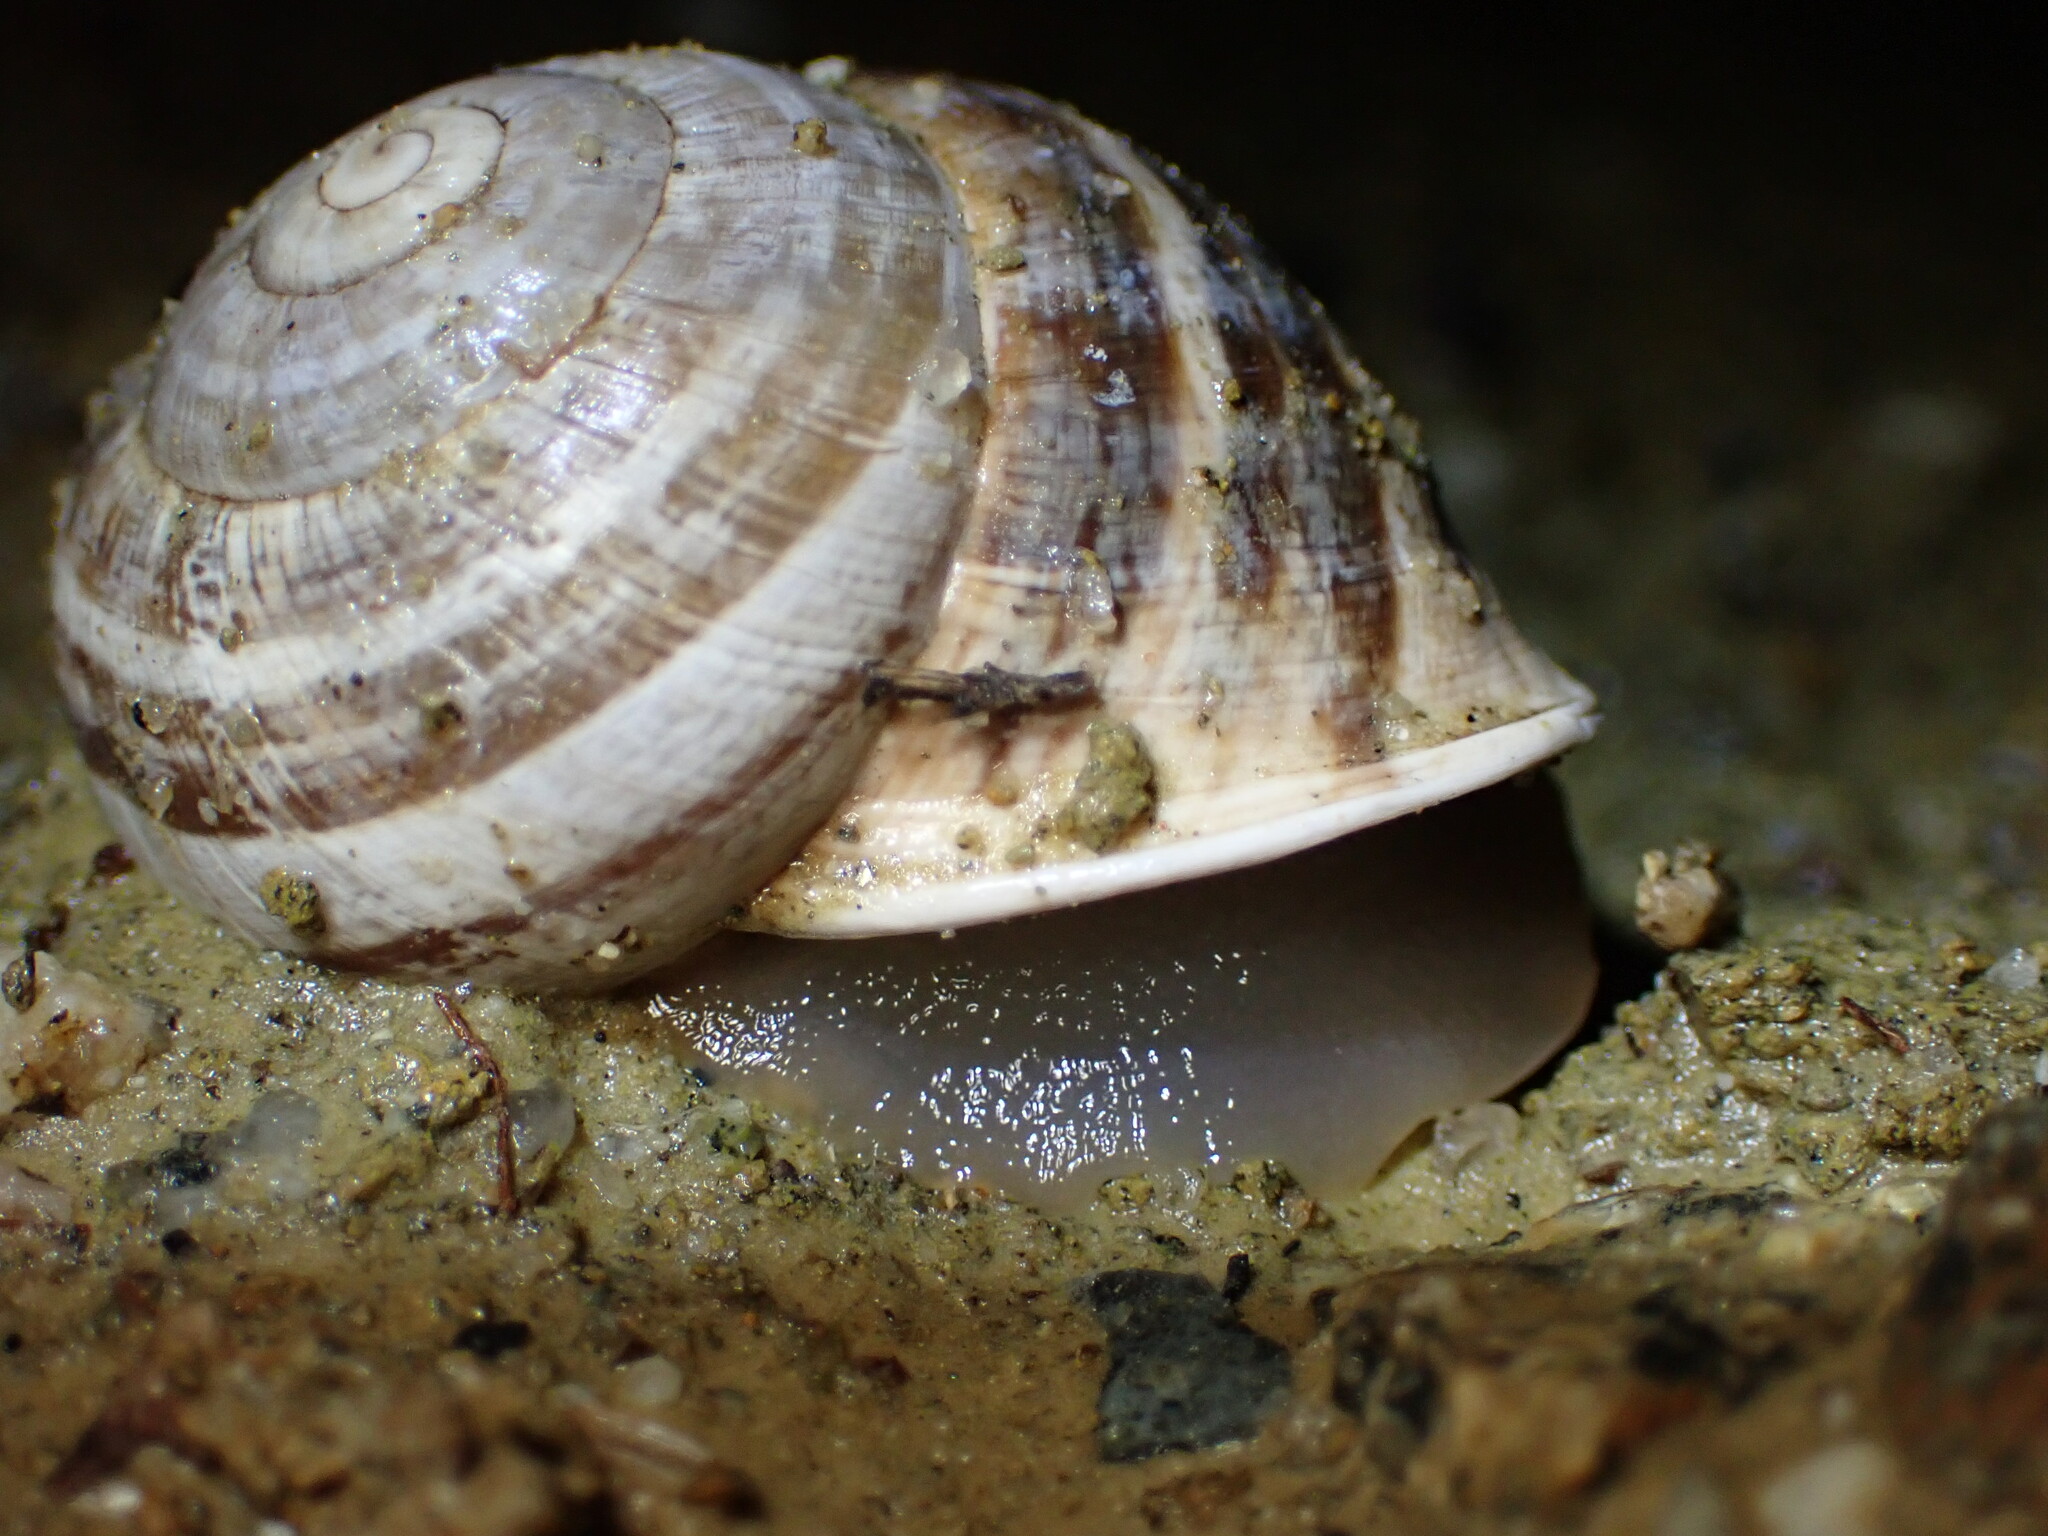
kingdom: Animalia
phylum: Mollusca
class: Gastropoda
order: Stylommatophora
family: Helicidae
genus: Otala
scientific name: Otala lactea
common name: Milk snail
